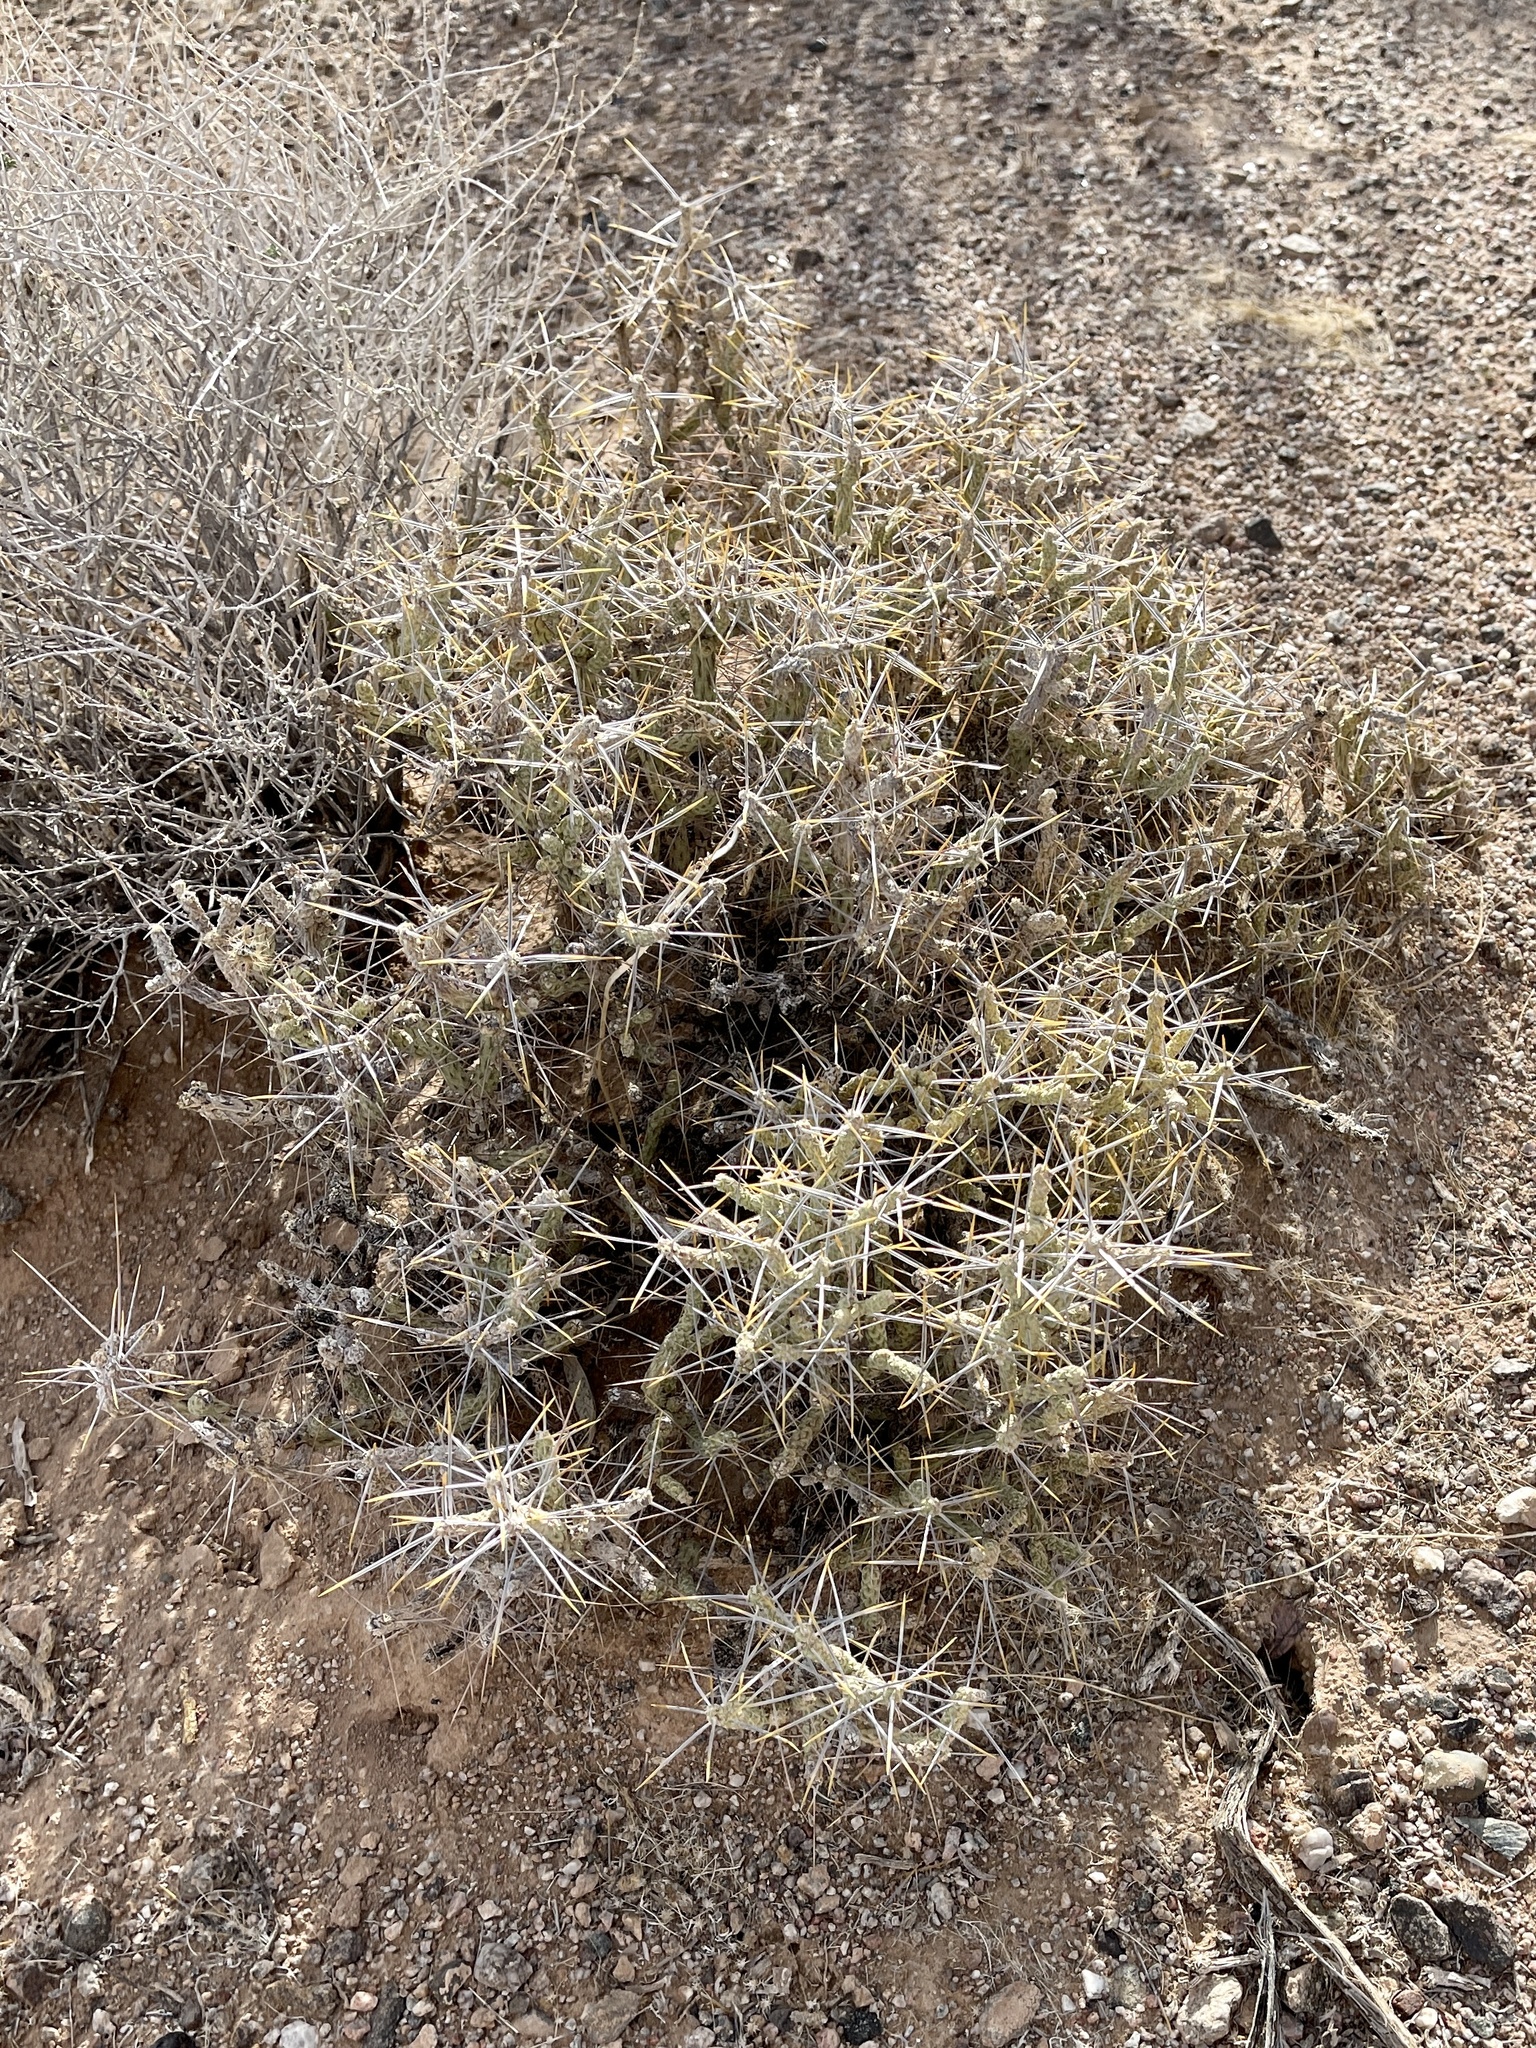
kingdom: Plantae
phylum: Tracheophyta
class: Magnoliopsida
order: Caryophyllales
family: Cactaceae
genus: Cylindropuntia
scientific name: Cylindropuntia ramosissima
